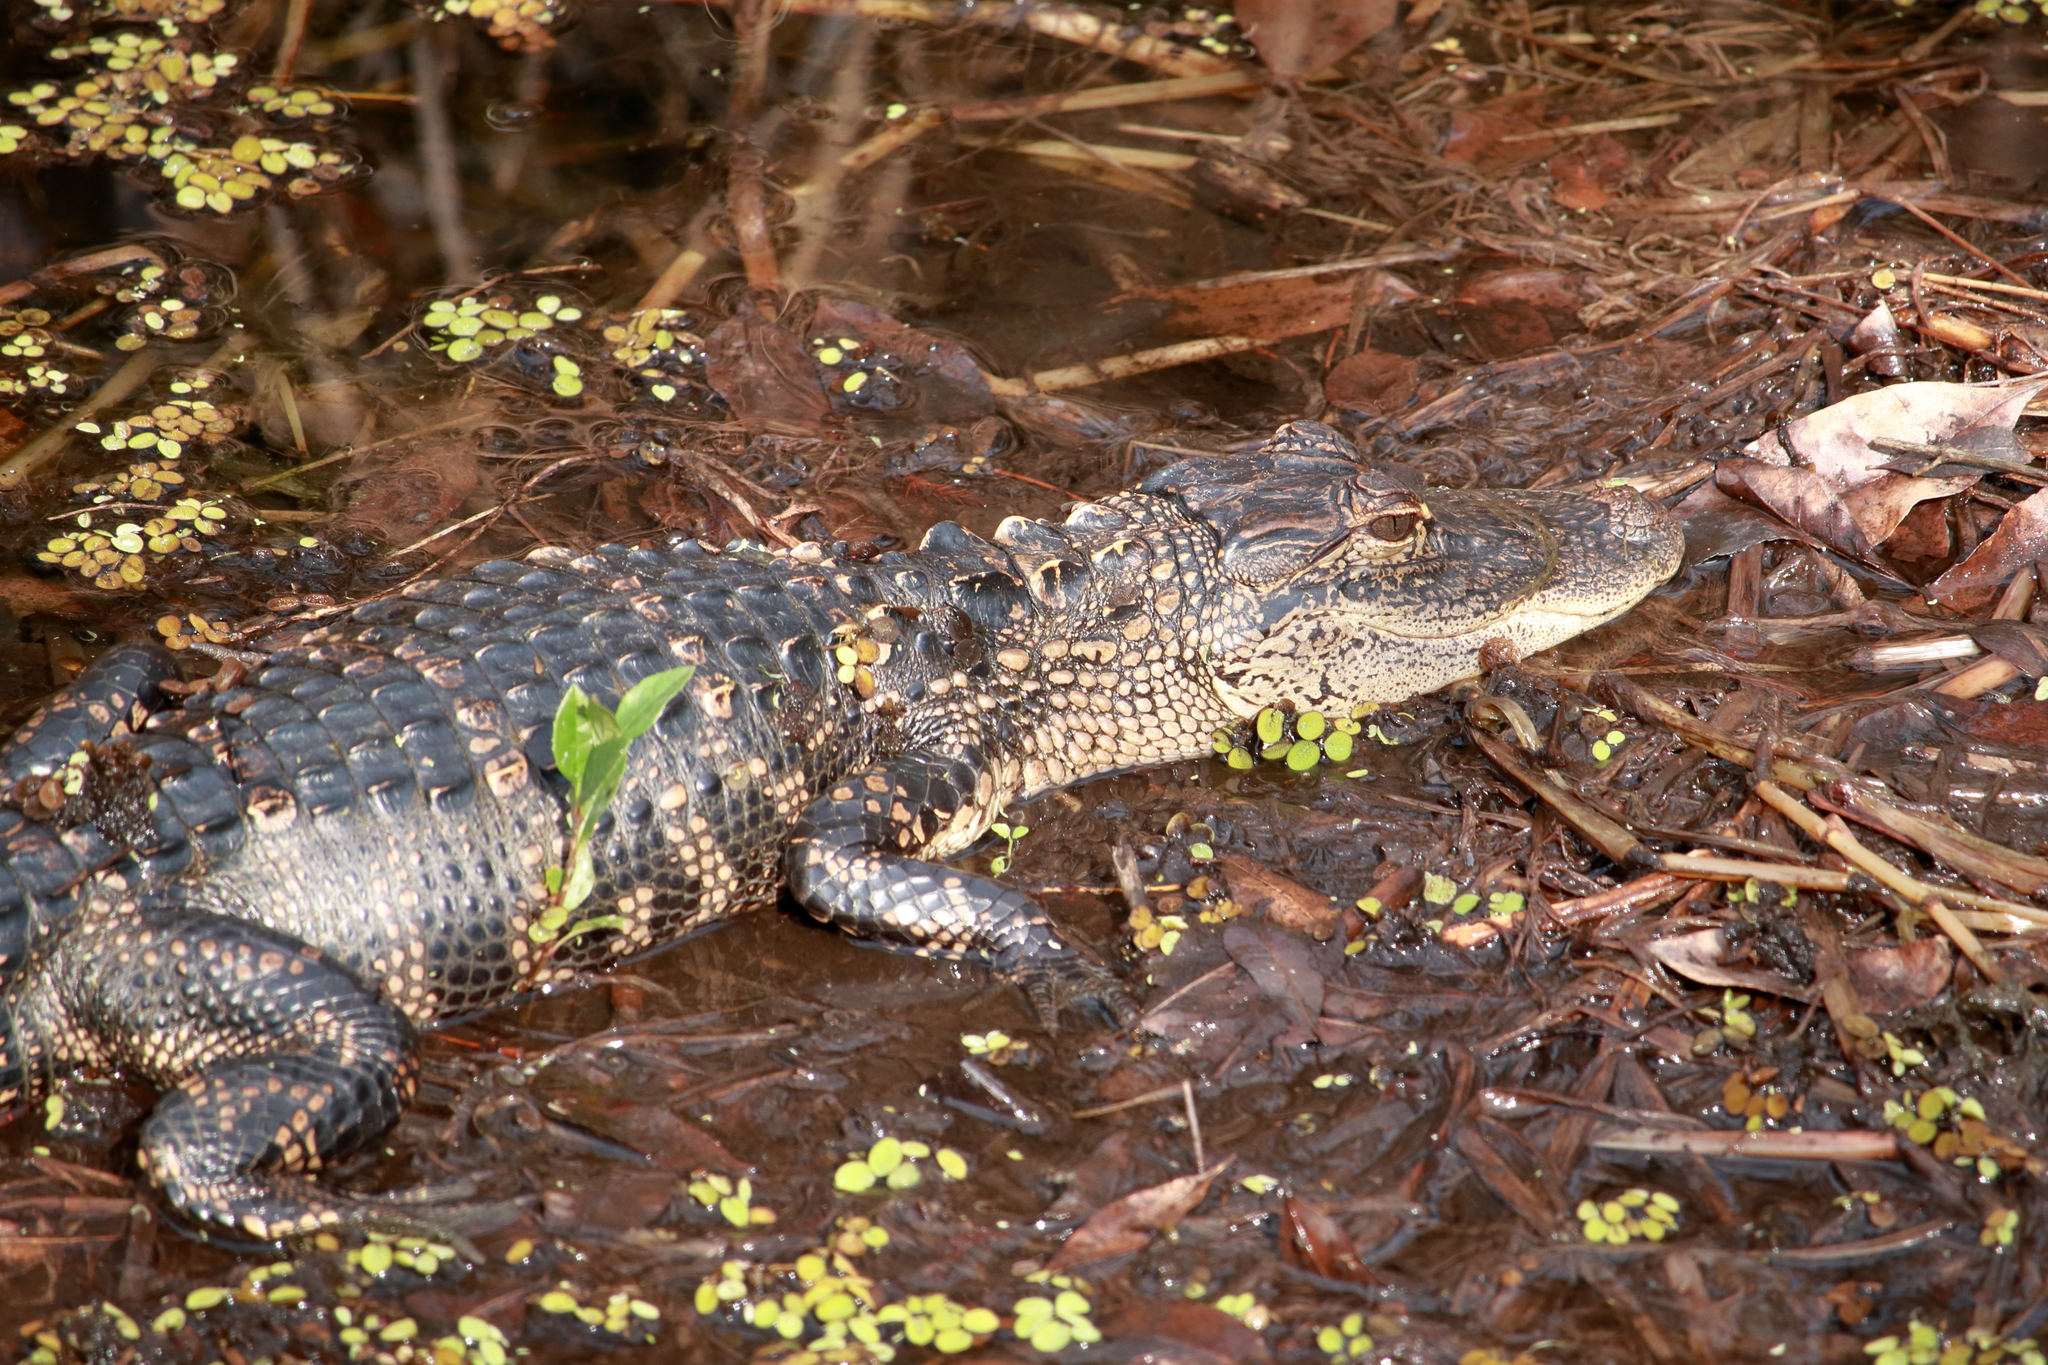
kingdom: Animalia
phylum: Chordata
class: Crocodylia
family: Alligatoridae
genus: Alligator
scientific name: Alligator mississippiensis
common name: American alligator
